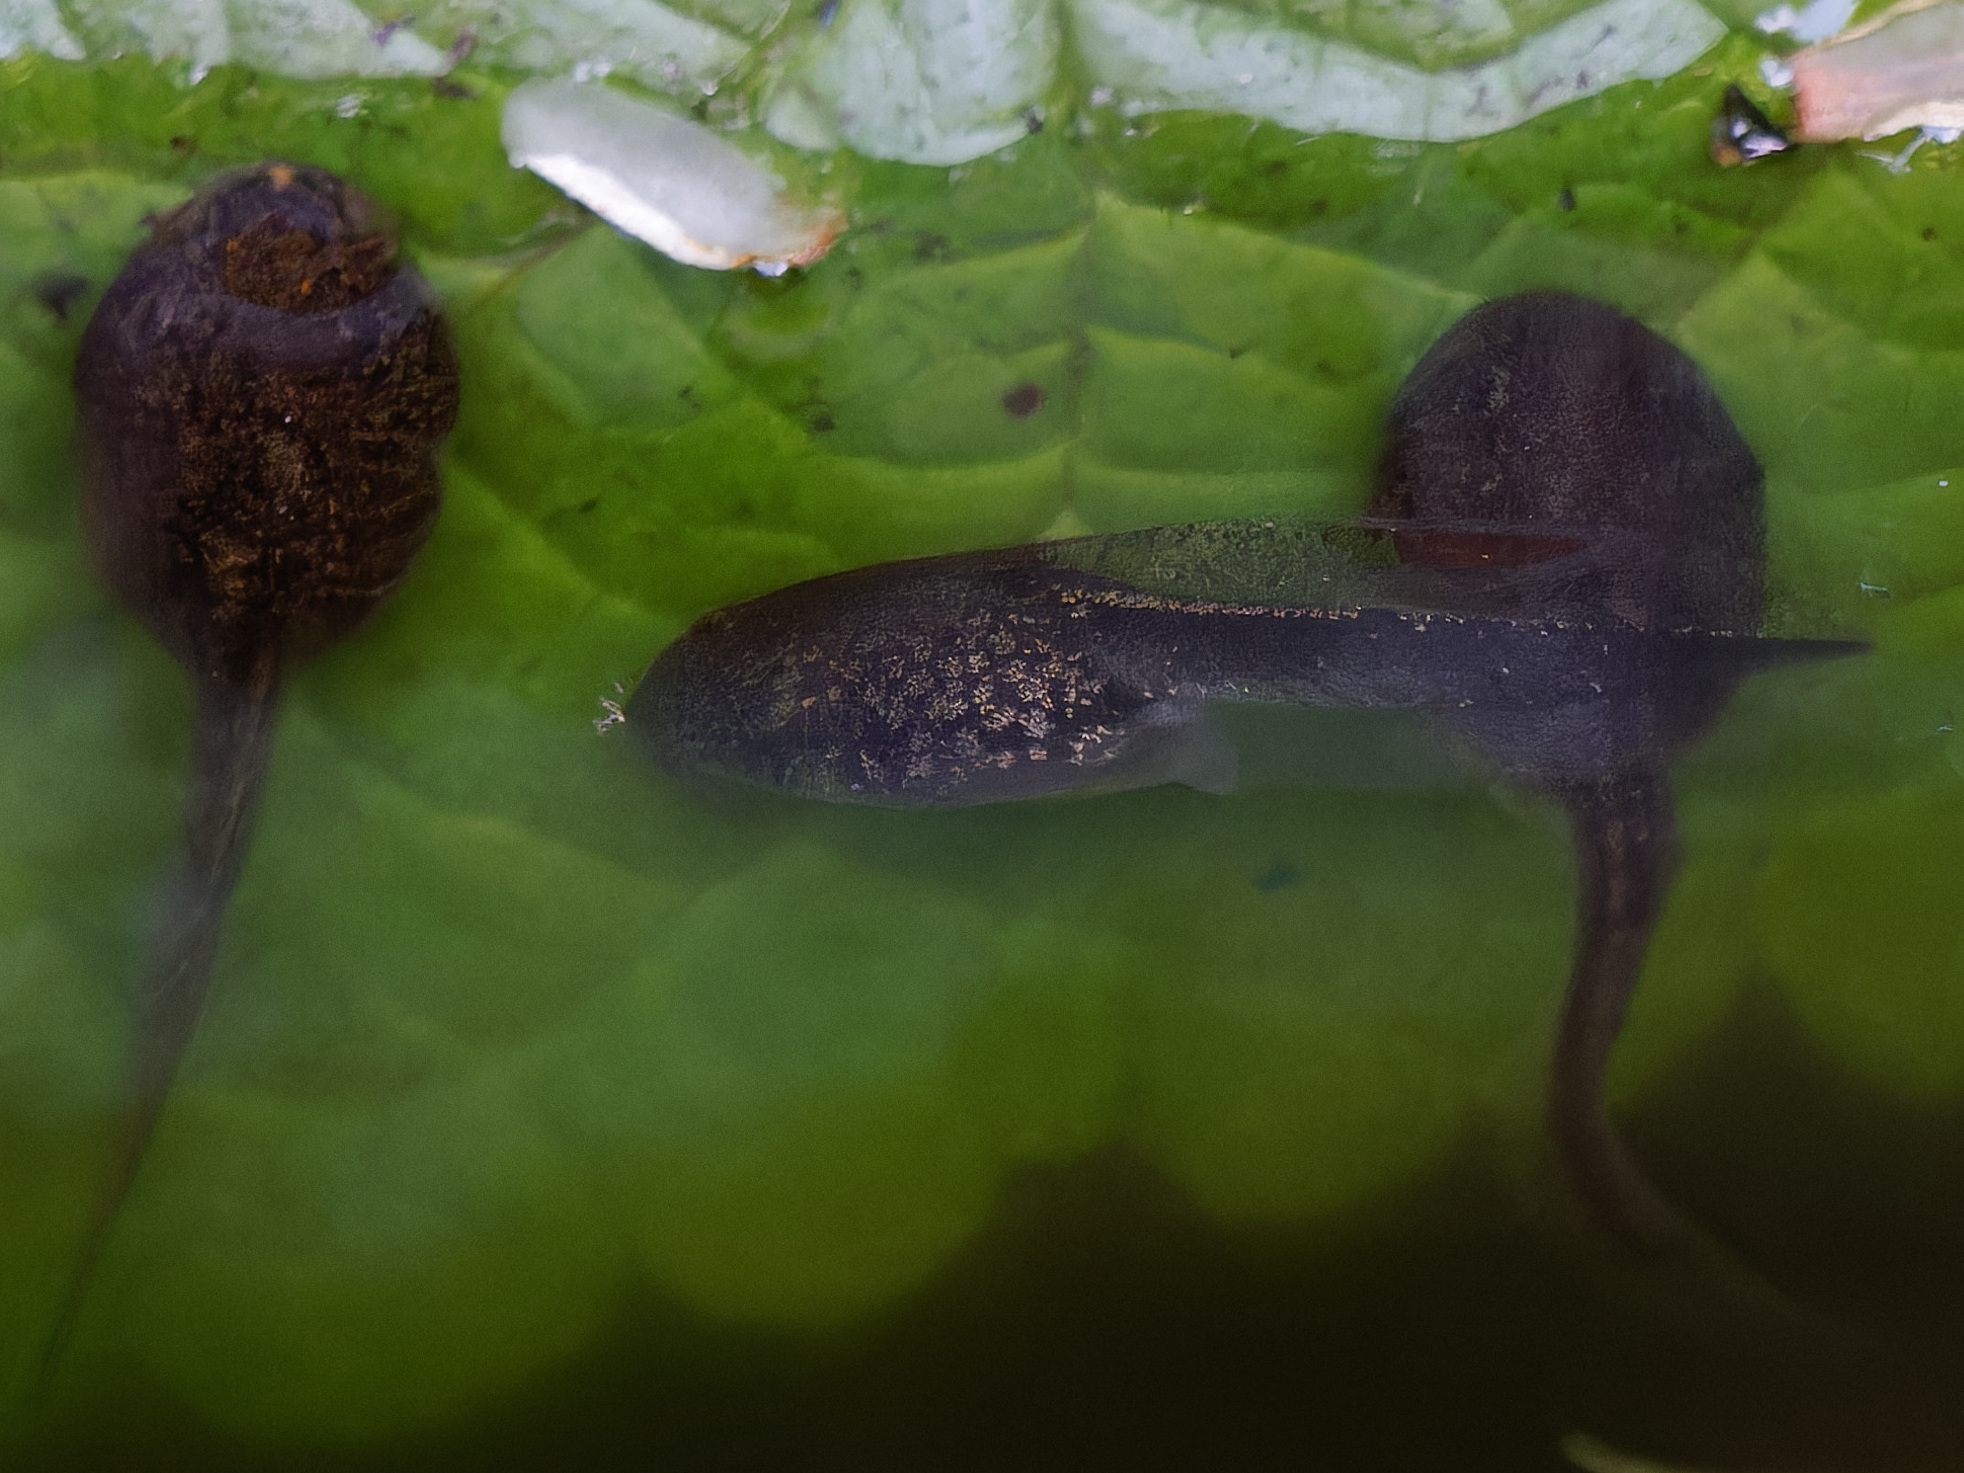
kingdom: Animalia
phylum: Chordata
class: Amphibia
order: Anura
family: Ranidae
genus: Rana
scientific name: Rana latastei
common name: Italian agile frog
